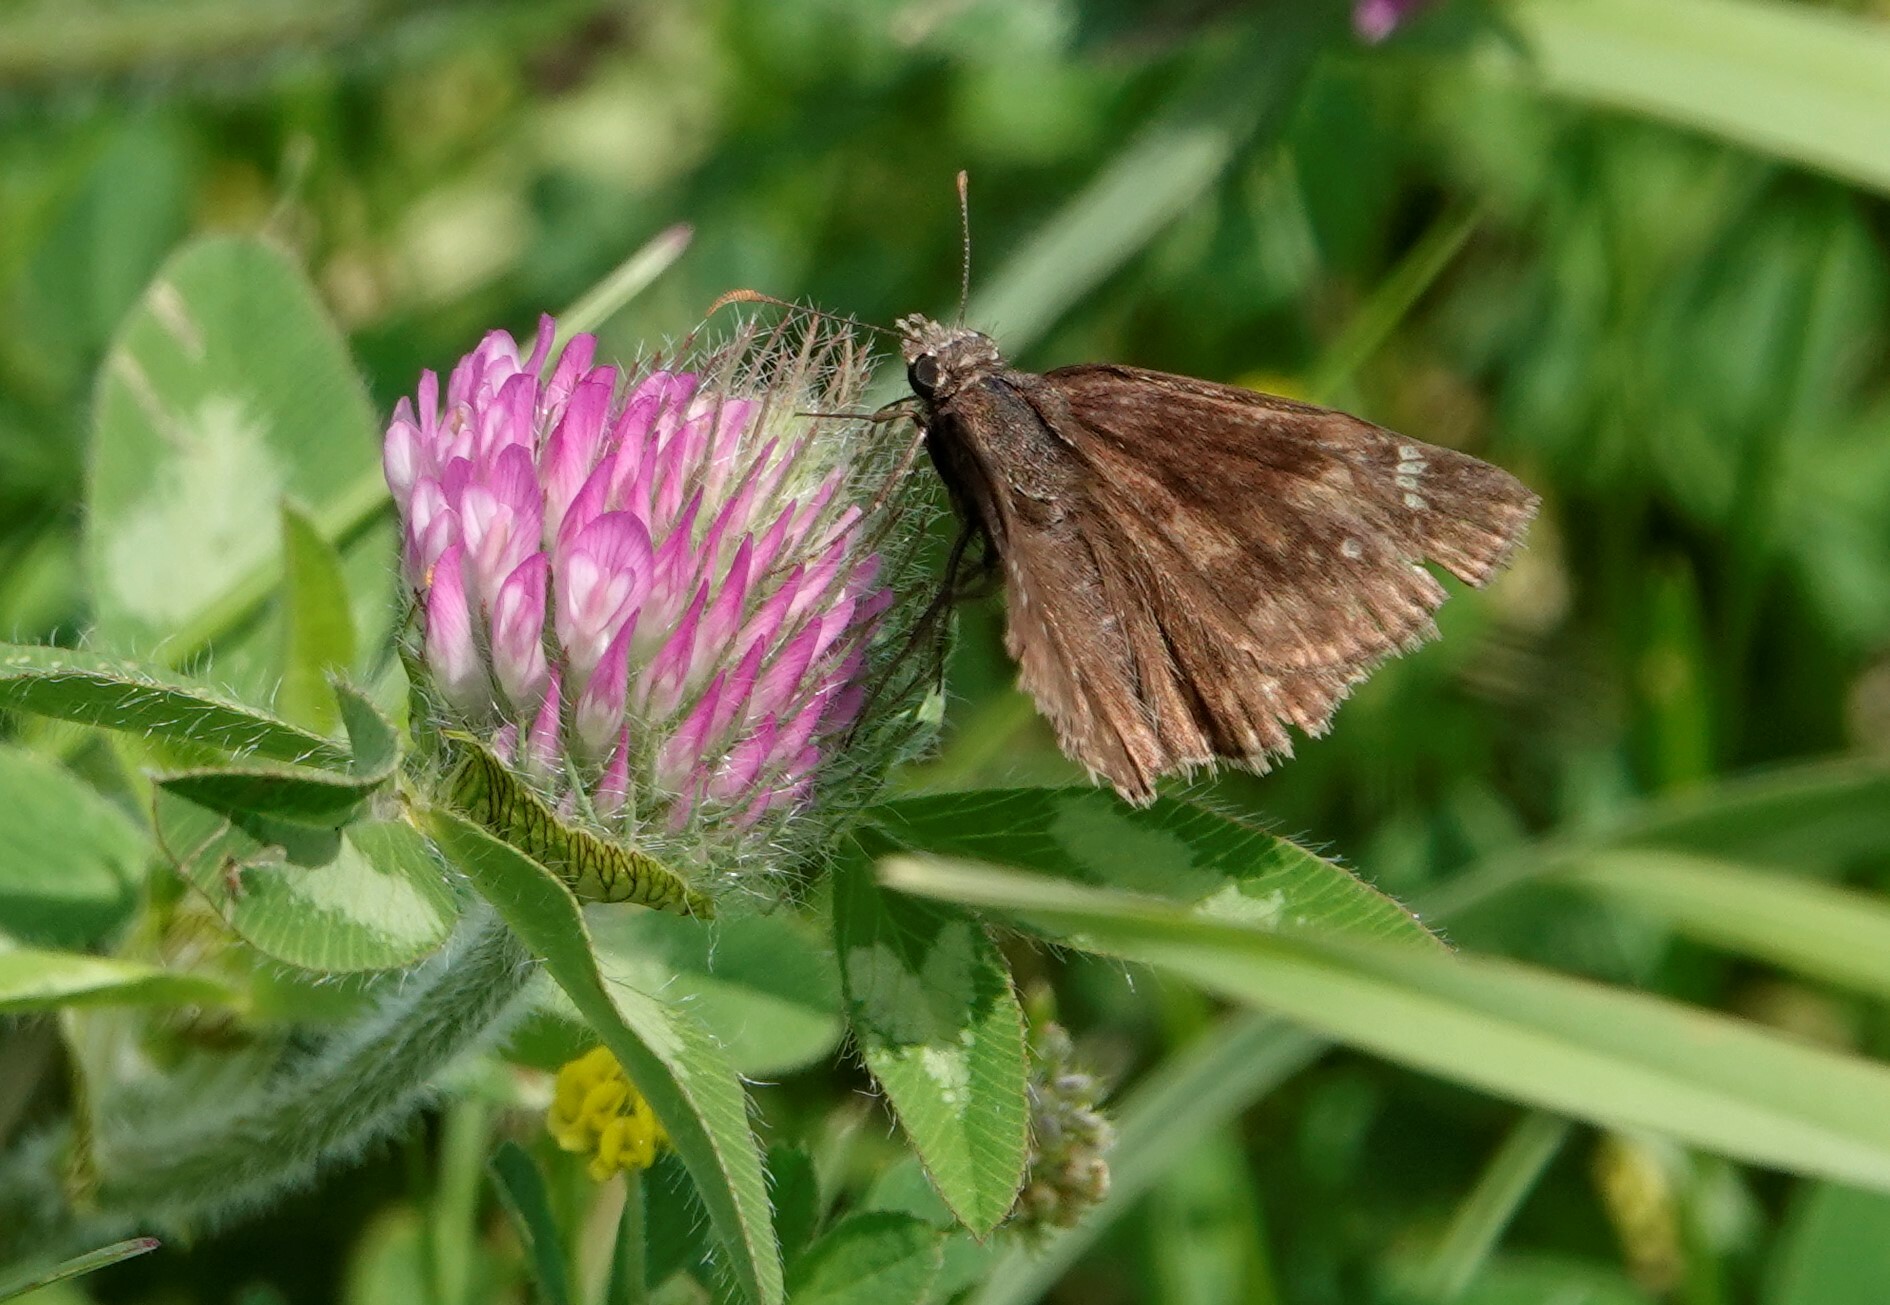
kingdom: Animalia
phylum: Arthropoda
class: Insecta
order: Lepidoptera
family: Hesperiidae
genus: Erynnis
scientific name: Erynnis baptisiae
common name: Wild indigo duskywing
